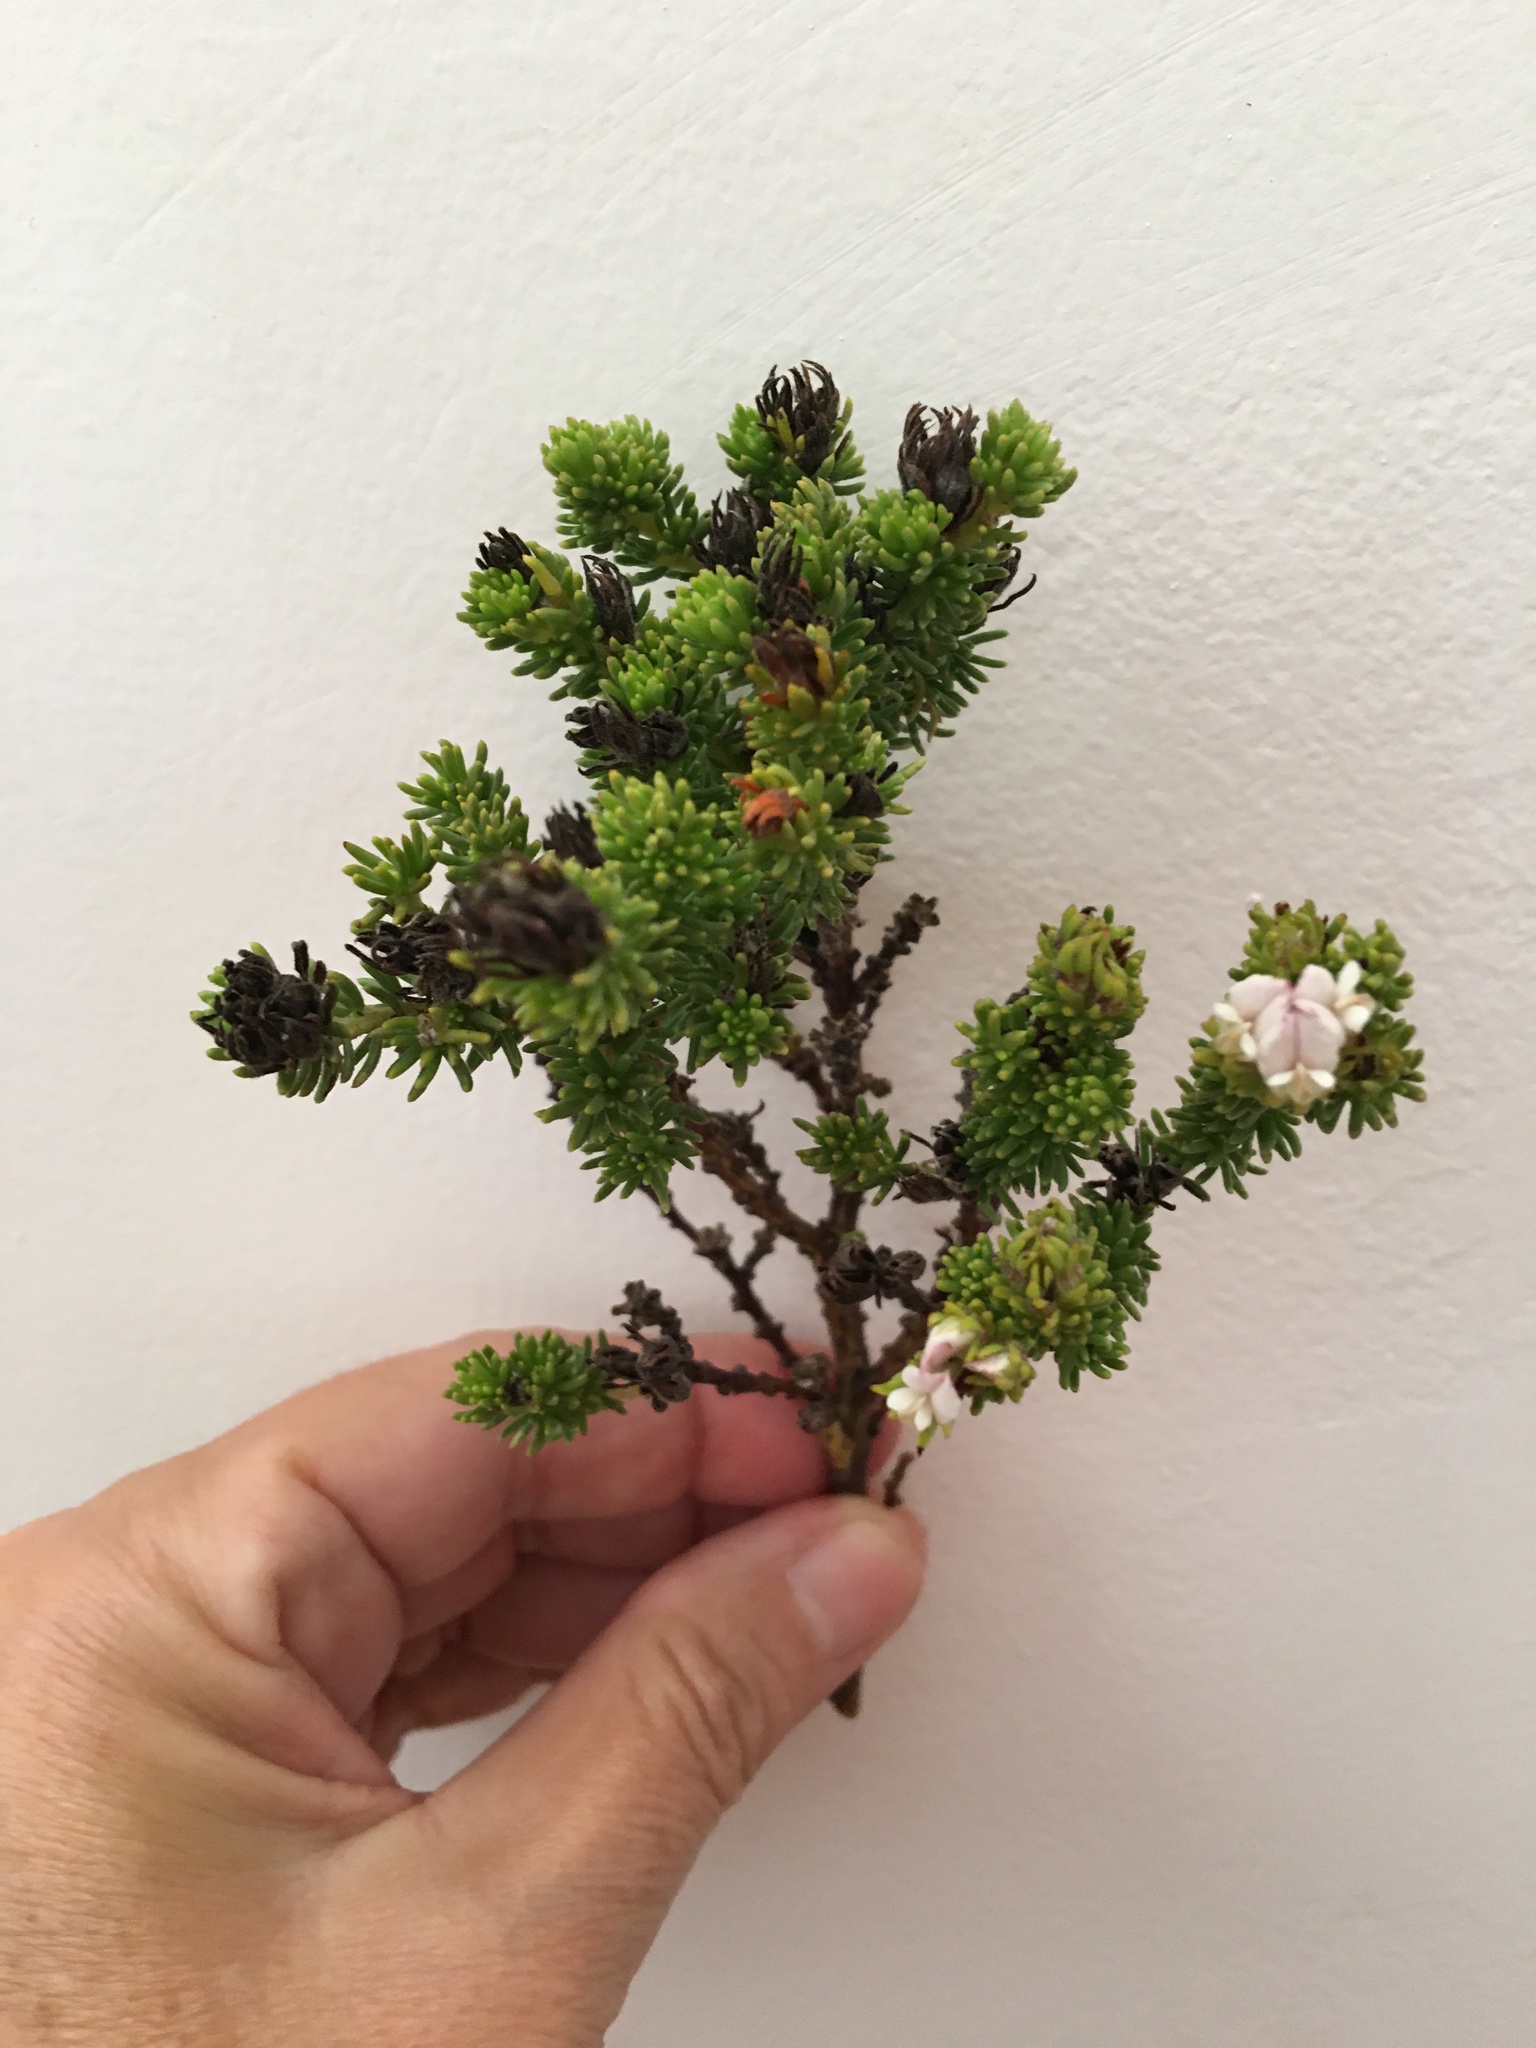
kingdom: Plantae
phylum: Tracheophyta
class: Magnoliopsida
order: Fabales
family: Fabaceae
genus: Aspalathus
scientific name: Aspalathus forbesii
